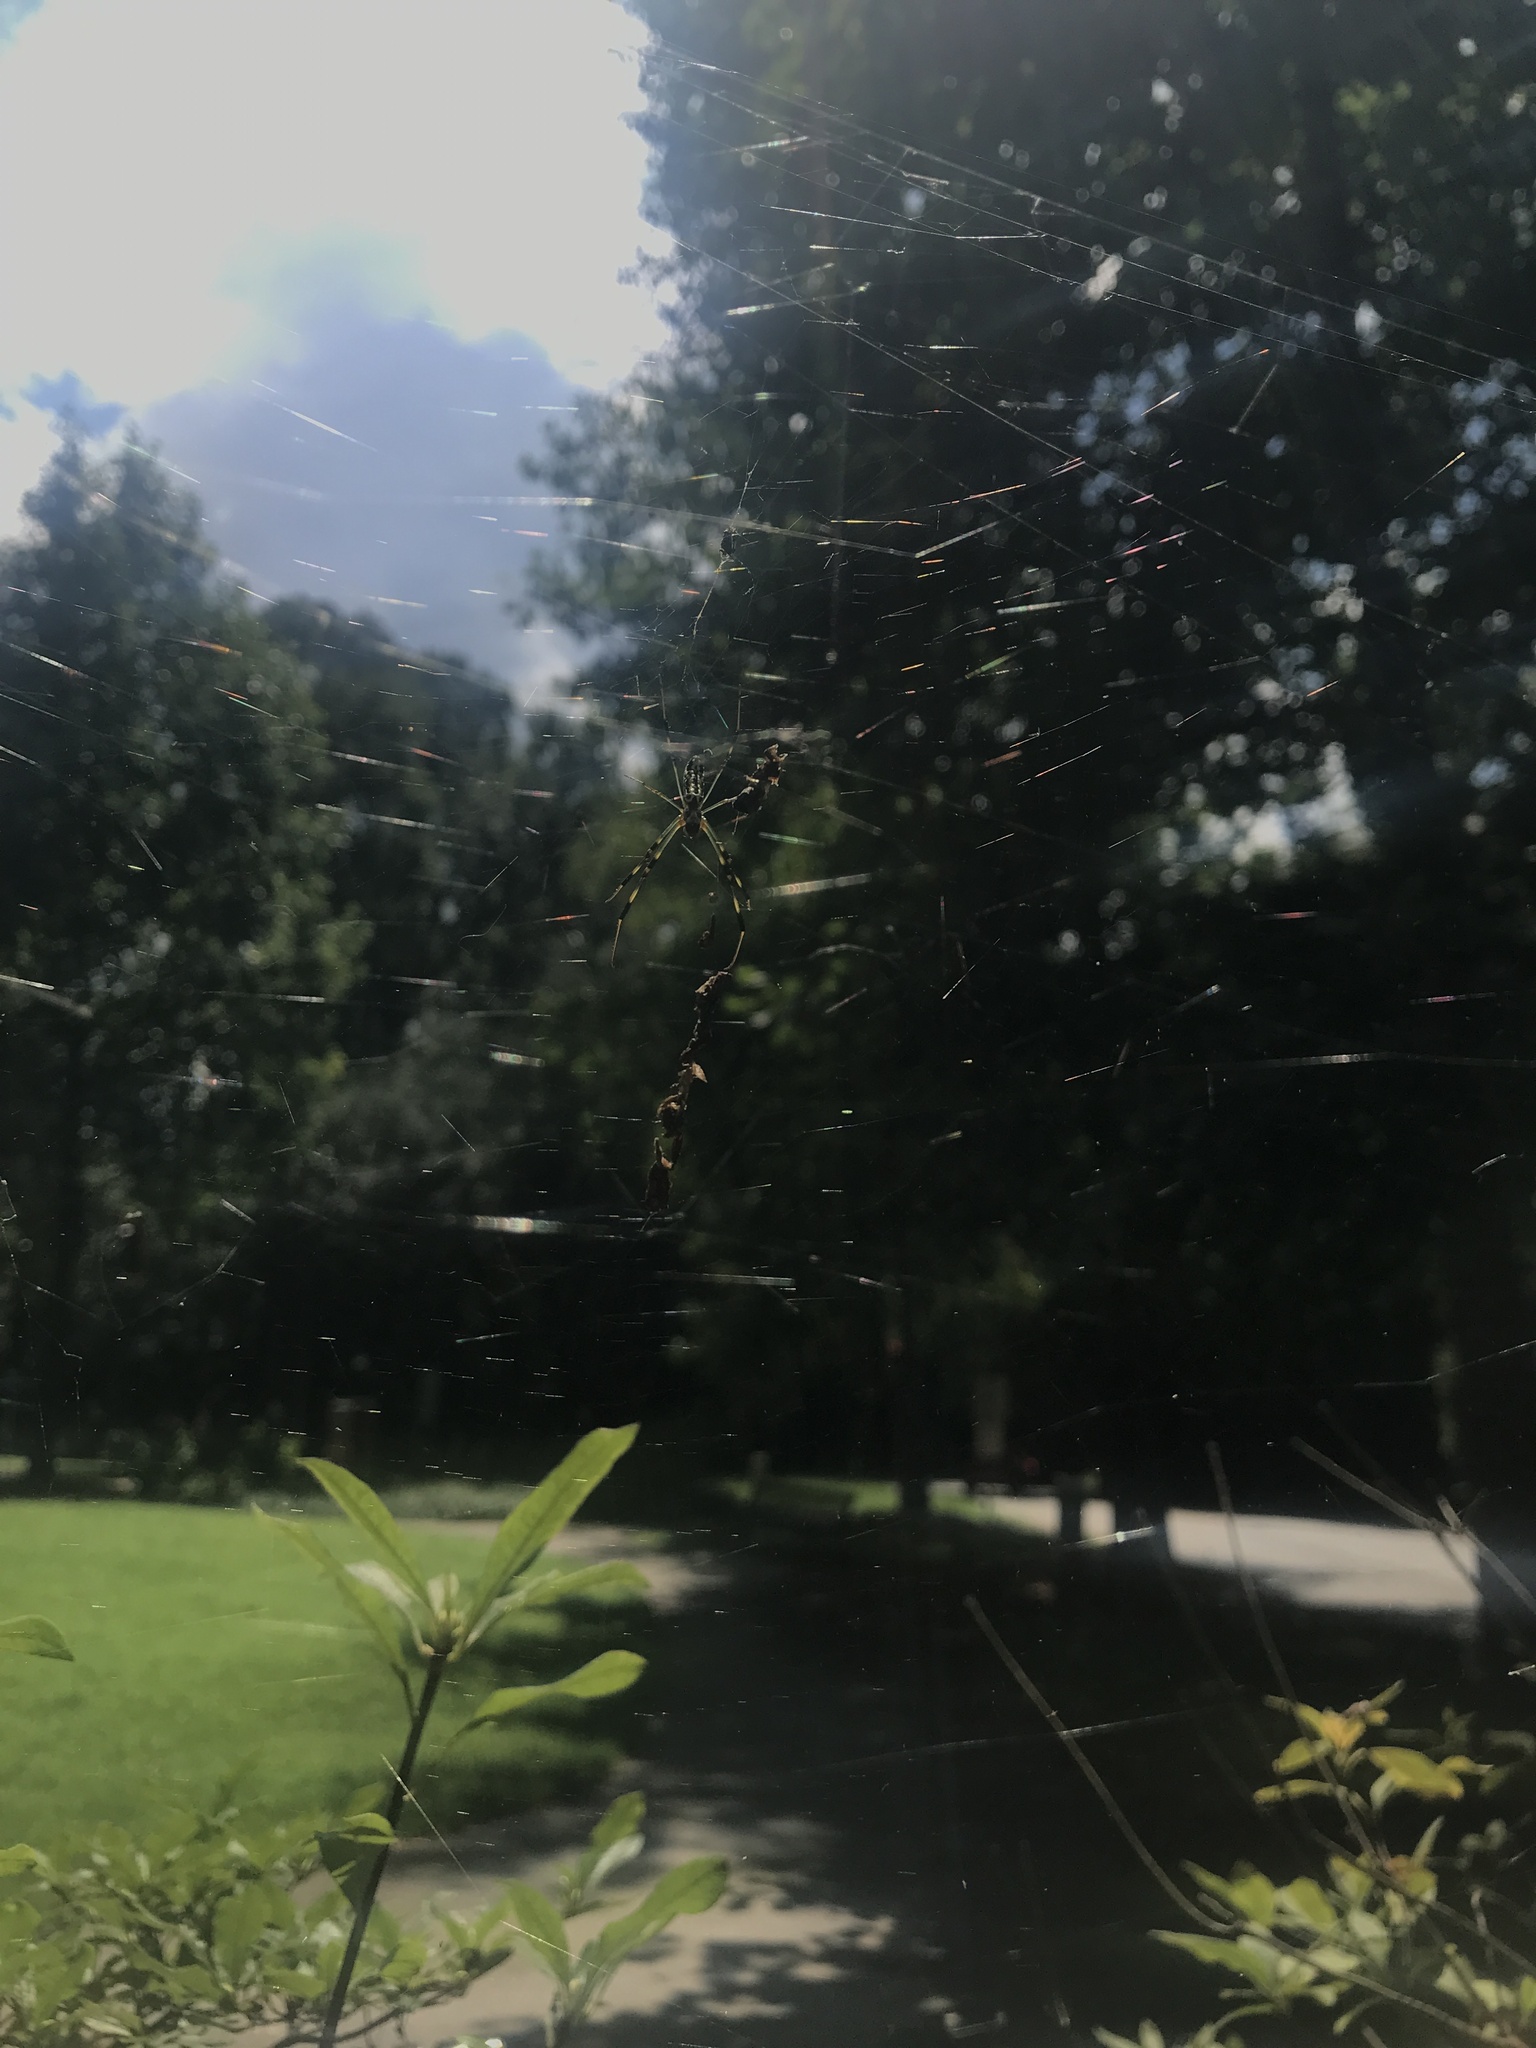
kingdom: Animalia
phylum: Arthropoda
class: Arachnida
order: Araneae
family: Araneidae
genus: Trichonephila
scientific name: Trichonephila clavata
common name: Jorō spider
